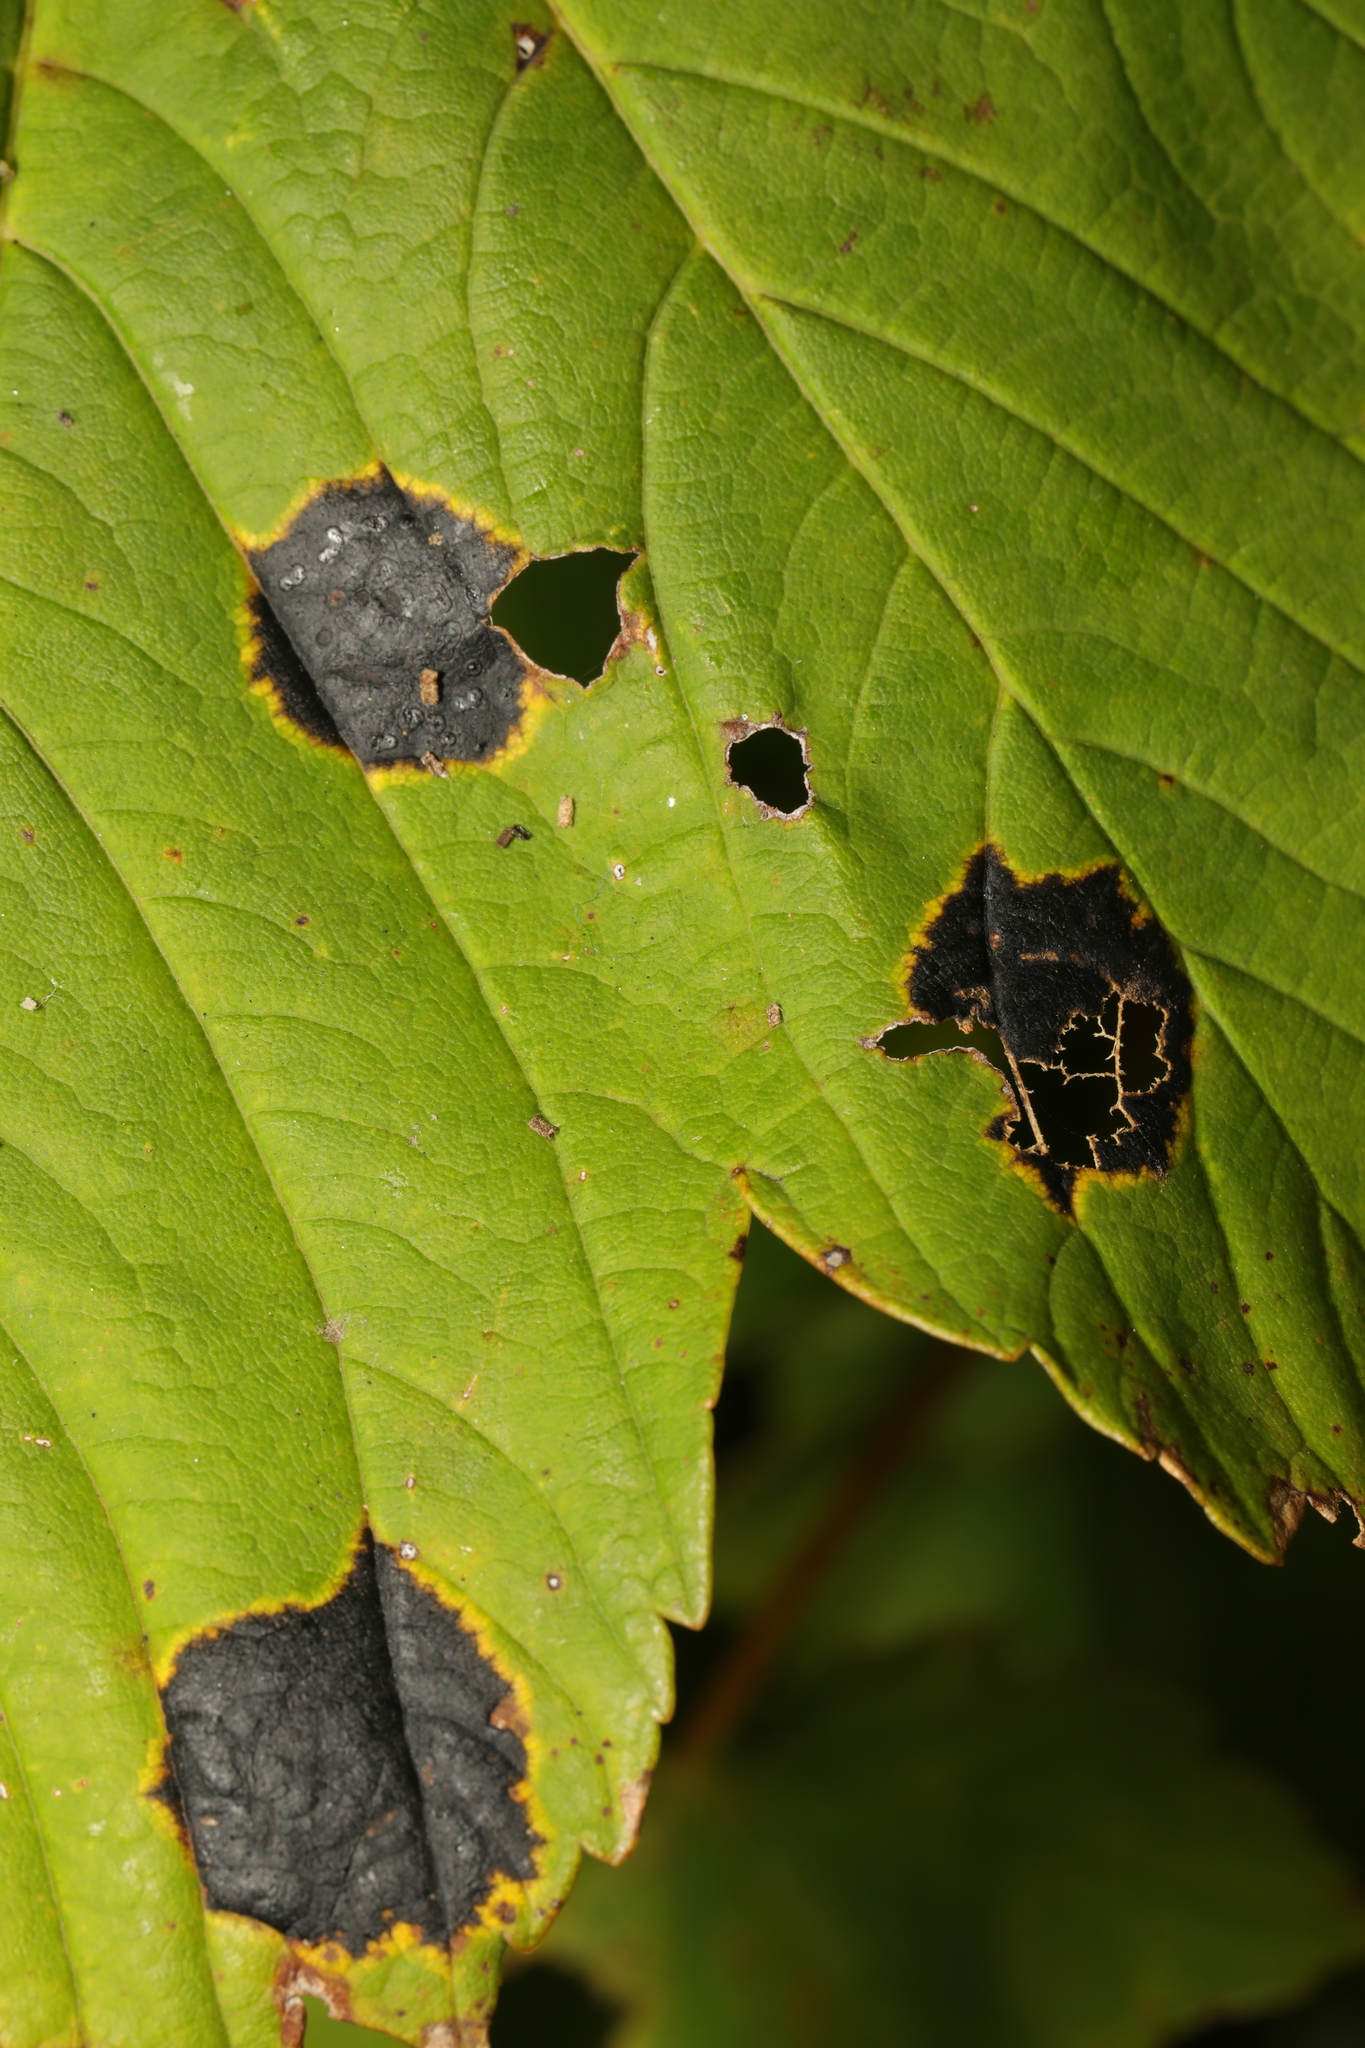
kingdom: Fungi
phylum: Ascomycota
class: Leotiomycetes
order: Rhytismatales
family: Rhytismataceae
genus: Rhytisma
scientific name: Rhytisma acerinum
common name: European tar spot
